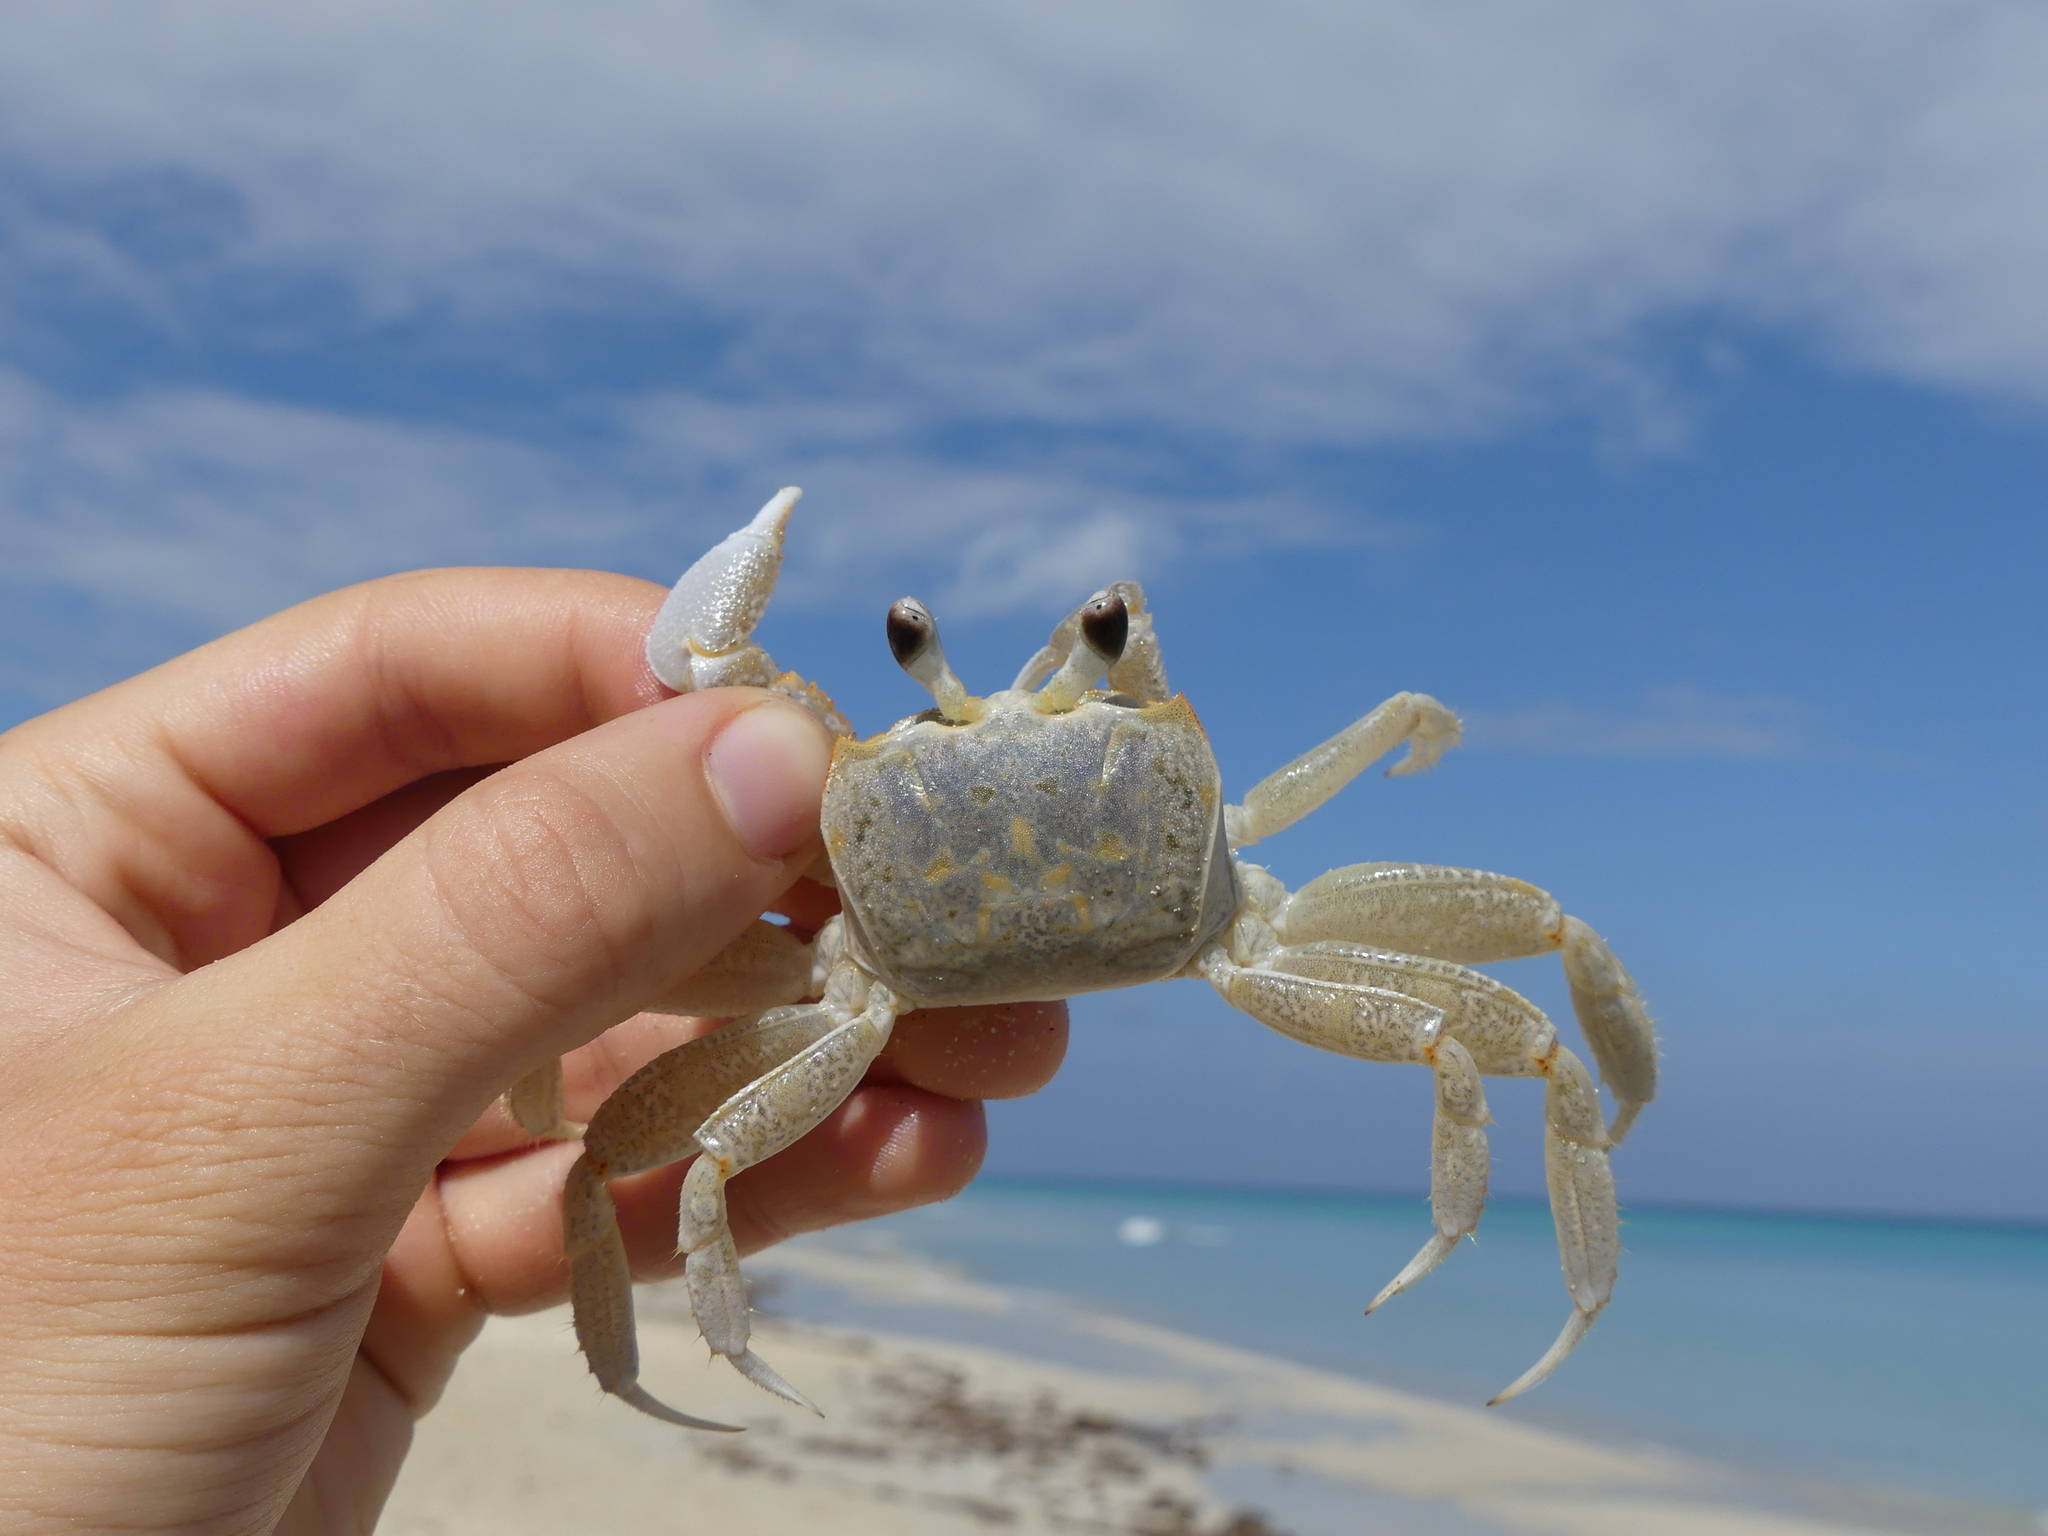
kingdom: Animalia
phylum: Arthropoda
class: Malacostraca
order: Decapoda
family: Ocypodidae
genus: Ocypode
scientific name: Ocypode quadrata
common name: Ghost crab
